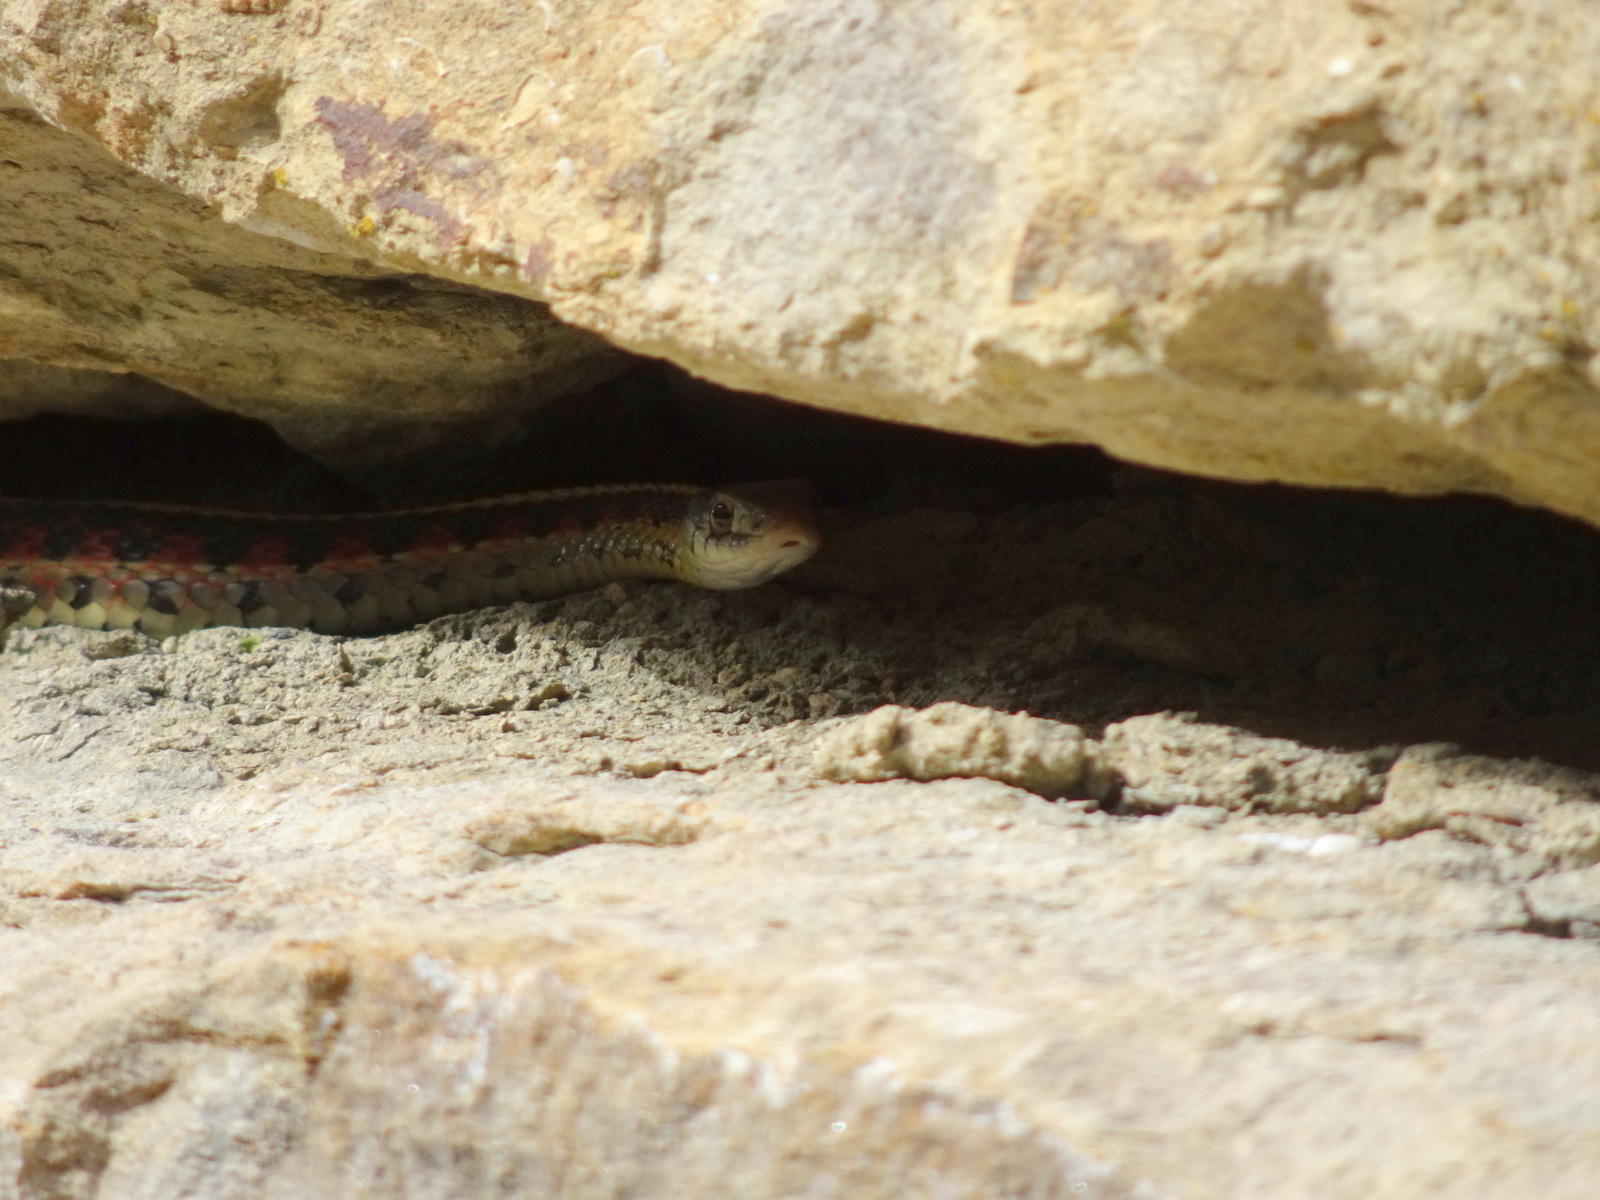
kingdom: Animalia
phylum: Chordata
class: Squamata
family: Colubridae
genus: Thamnophis
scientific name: Thamnophis sirtalis
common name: Common garter snake
